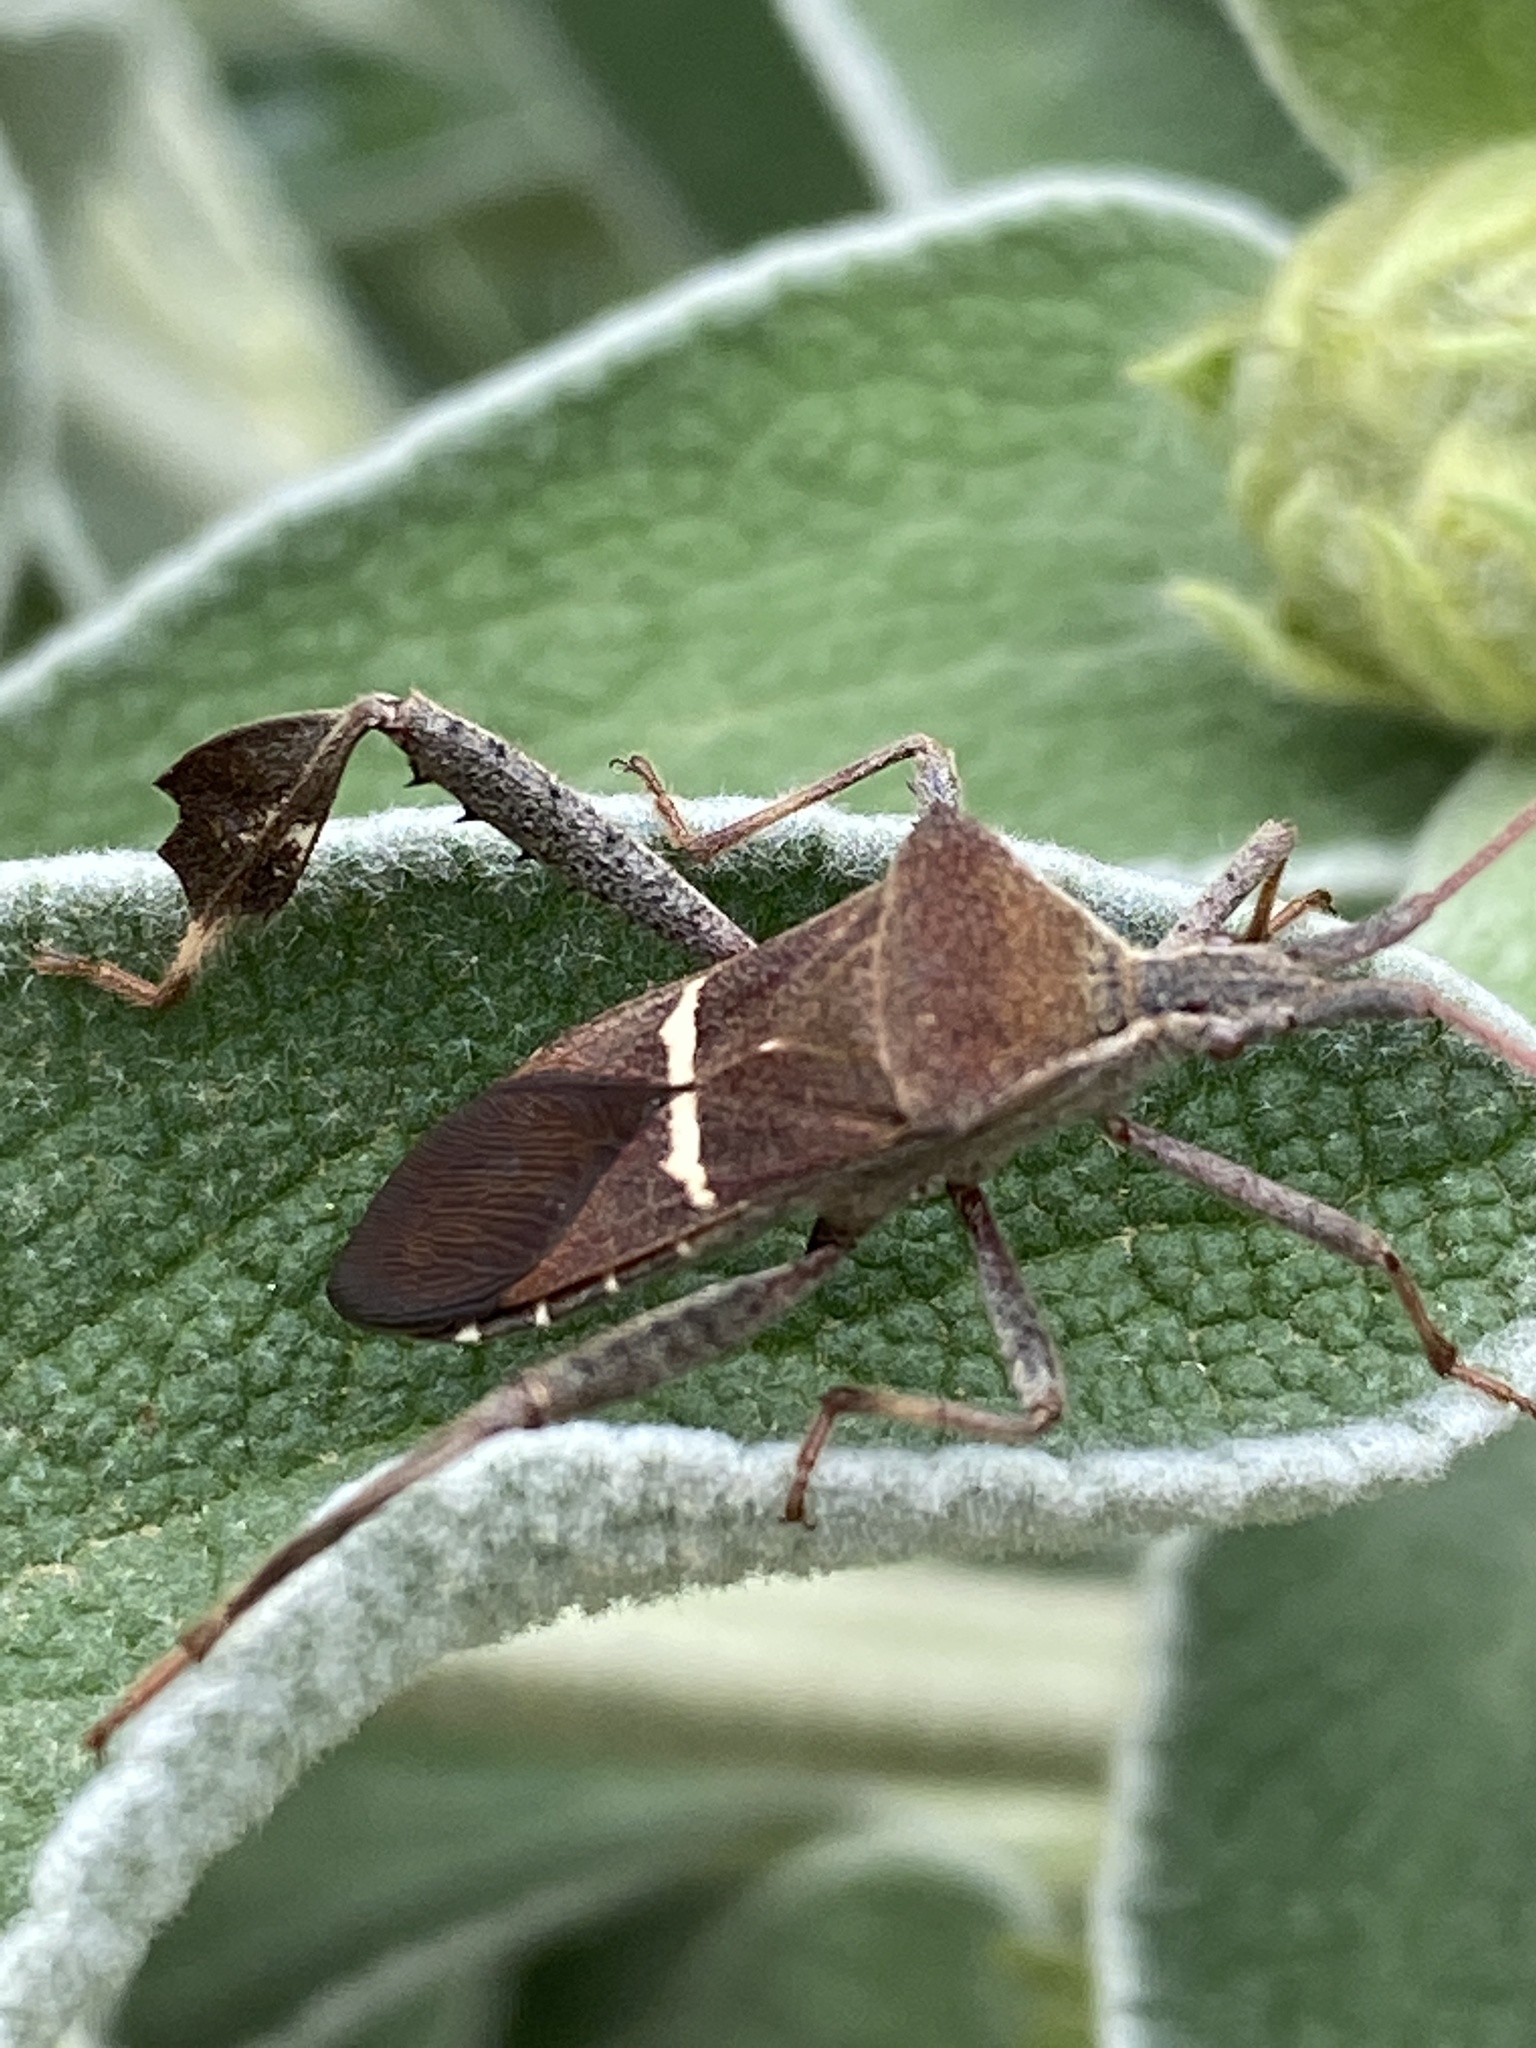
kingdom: Animalia
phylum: Arthropoda
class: Insecta
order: Hemiptera
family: Coreidae
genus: Leptoglossus
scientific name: Leptoglossus phyllopus
